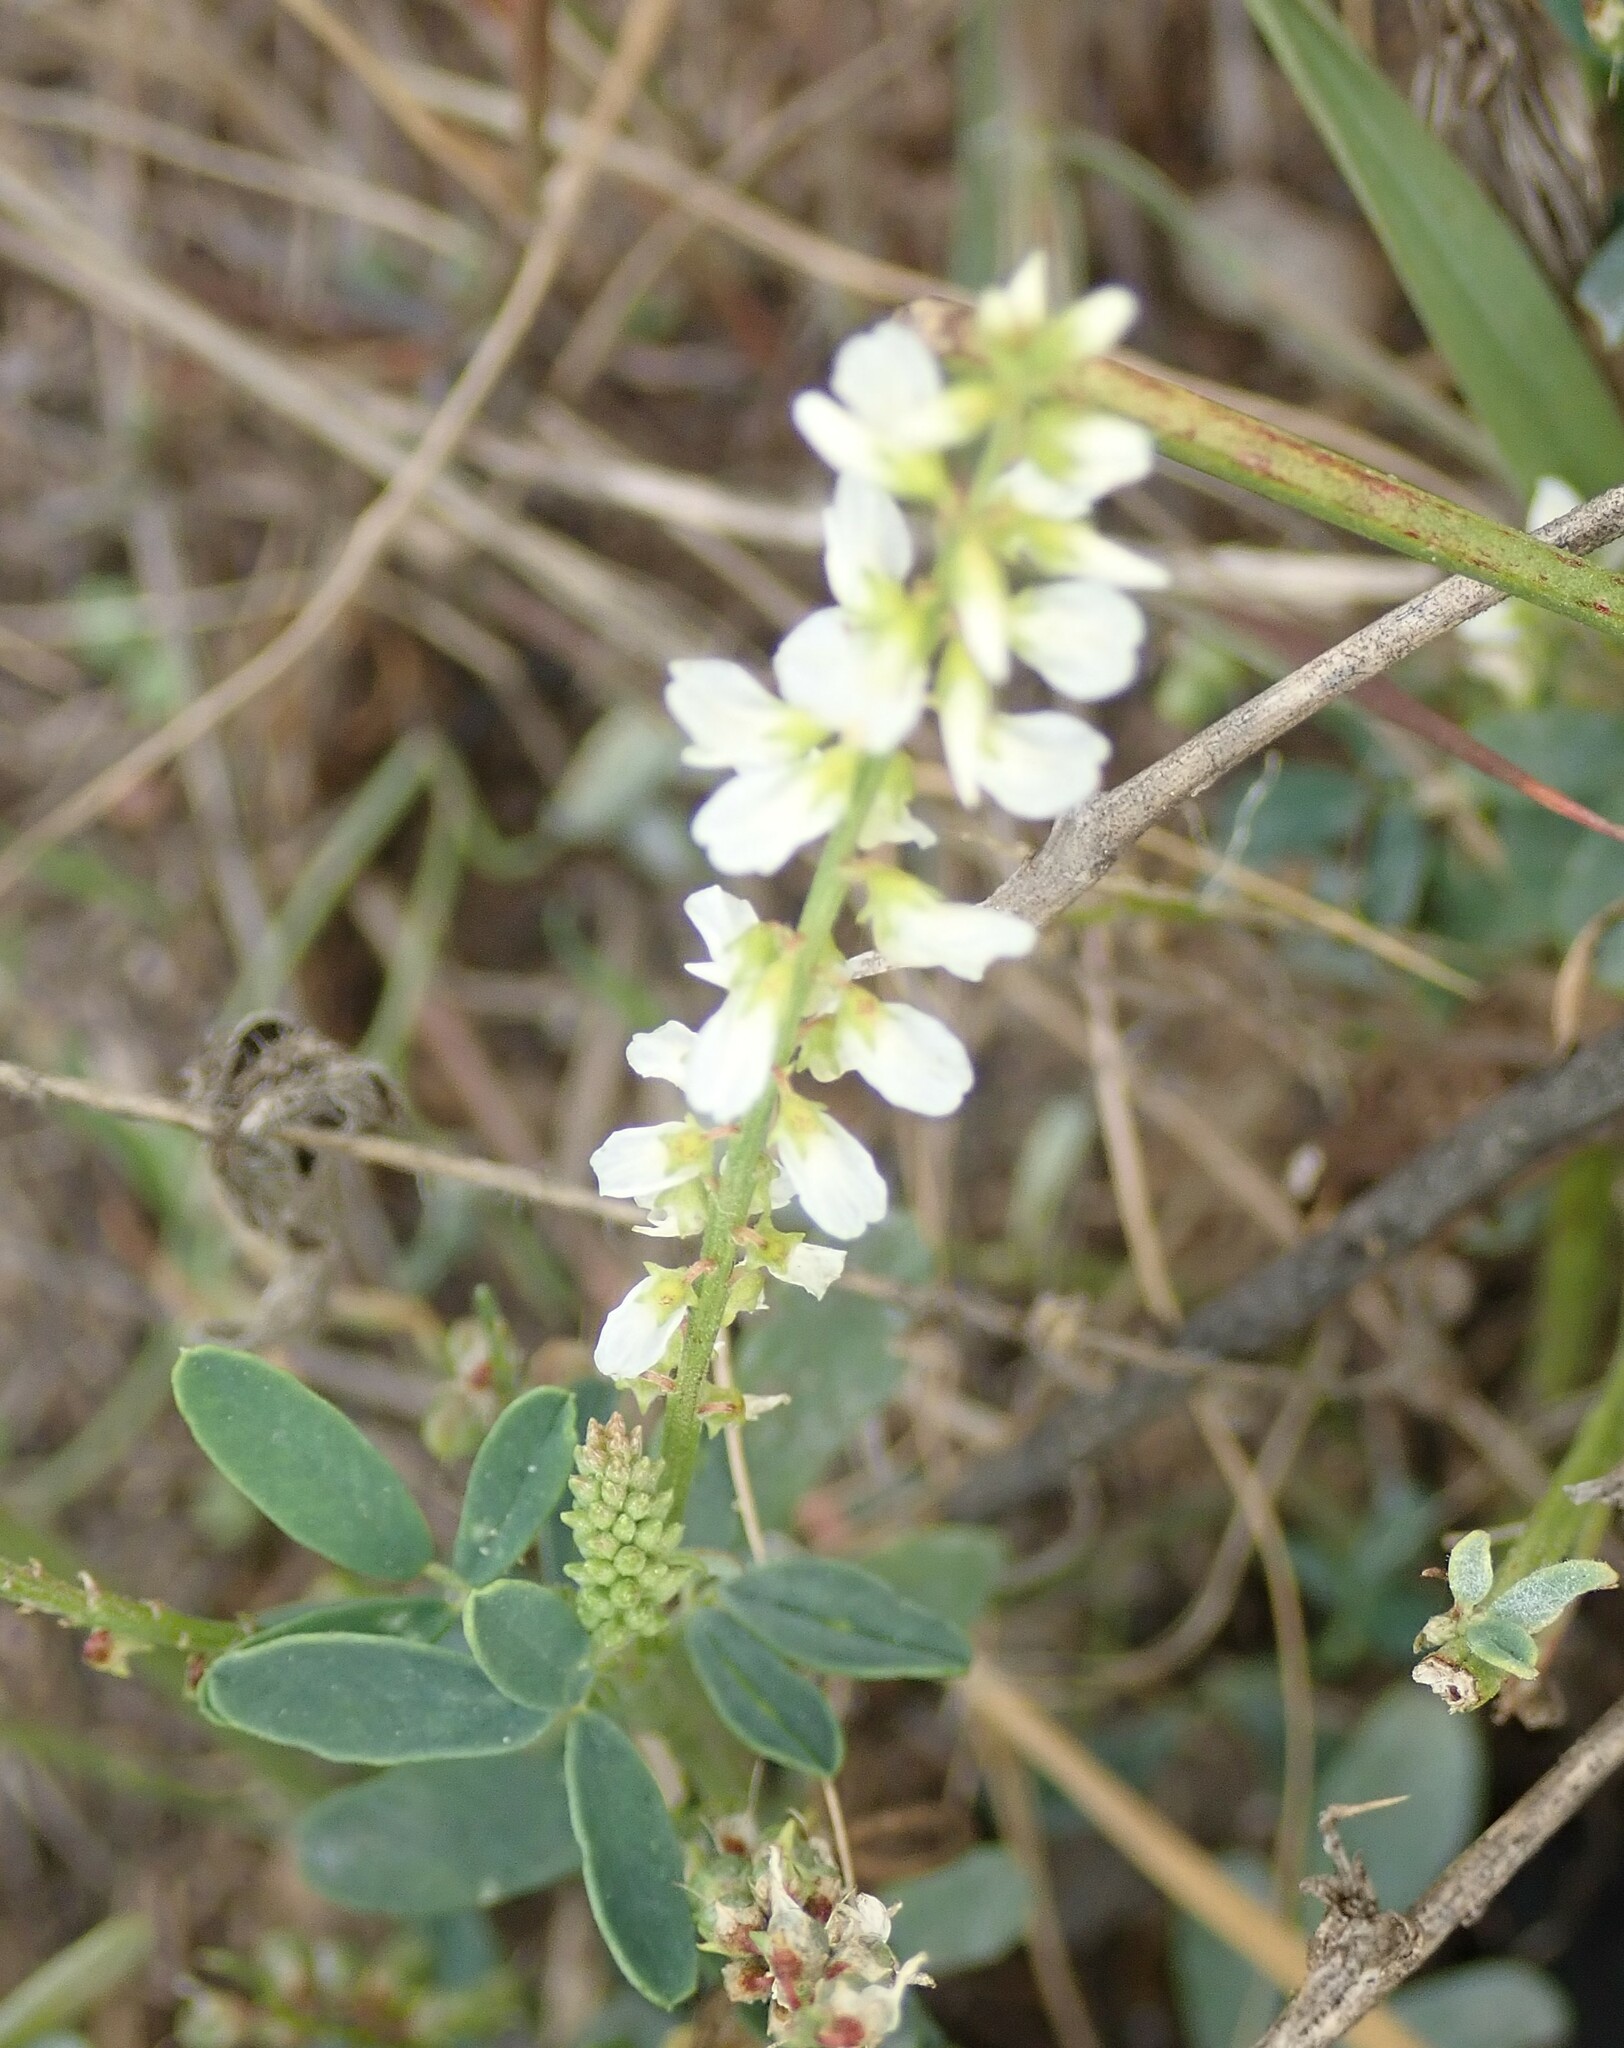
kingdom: Plantae
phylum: Tracheophyta
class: Magnoliopsida
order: Fabales
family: Fabaceae
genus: Melilotus
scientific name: Melilotus albus
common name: White melilot
